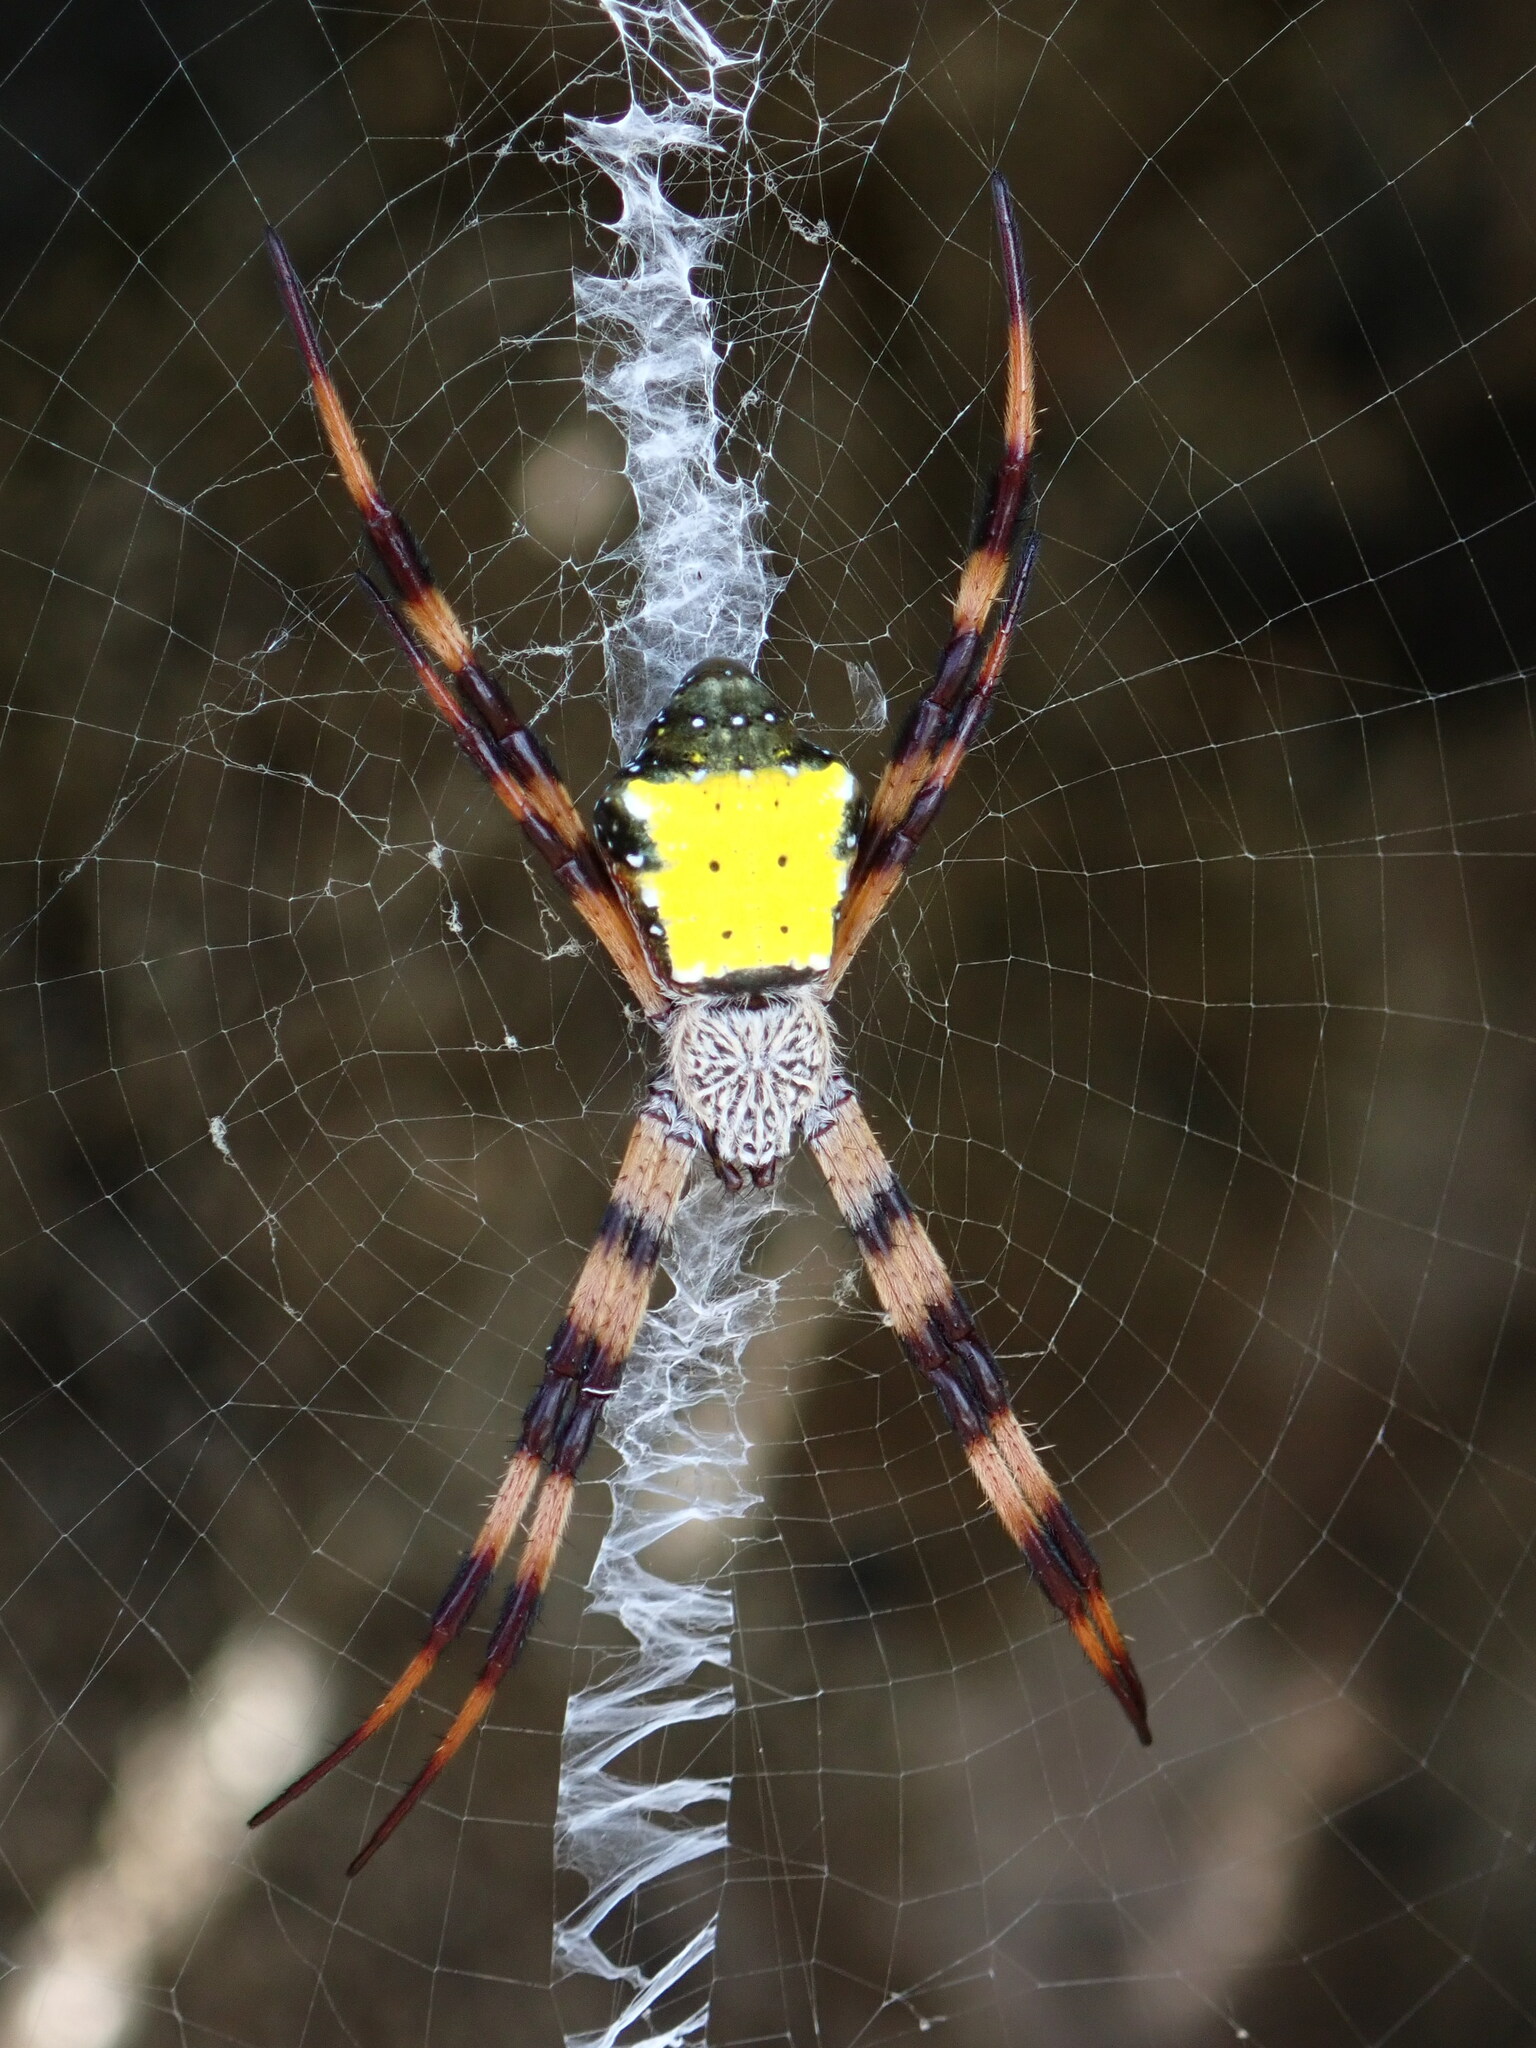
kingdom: Animalia
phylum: Arthropoda
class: Arachnida
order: Araneae
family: Araneidae
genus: Argiope
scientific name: Argiope aetherea
